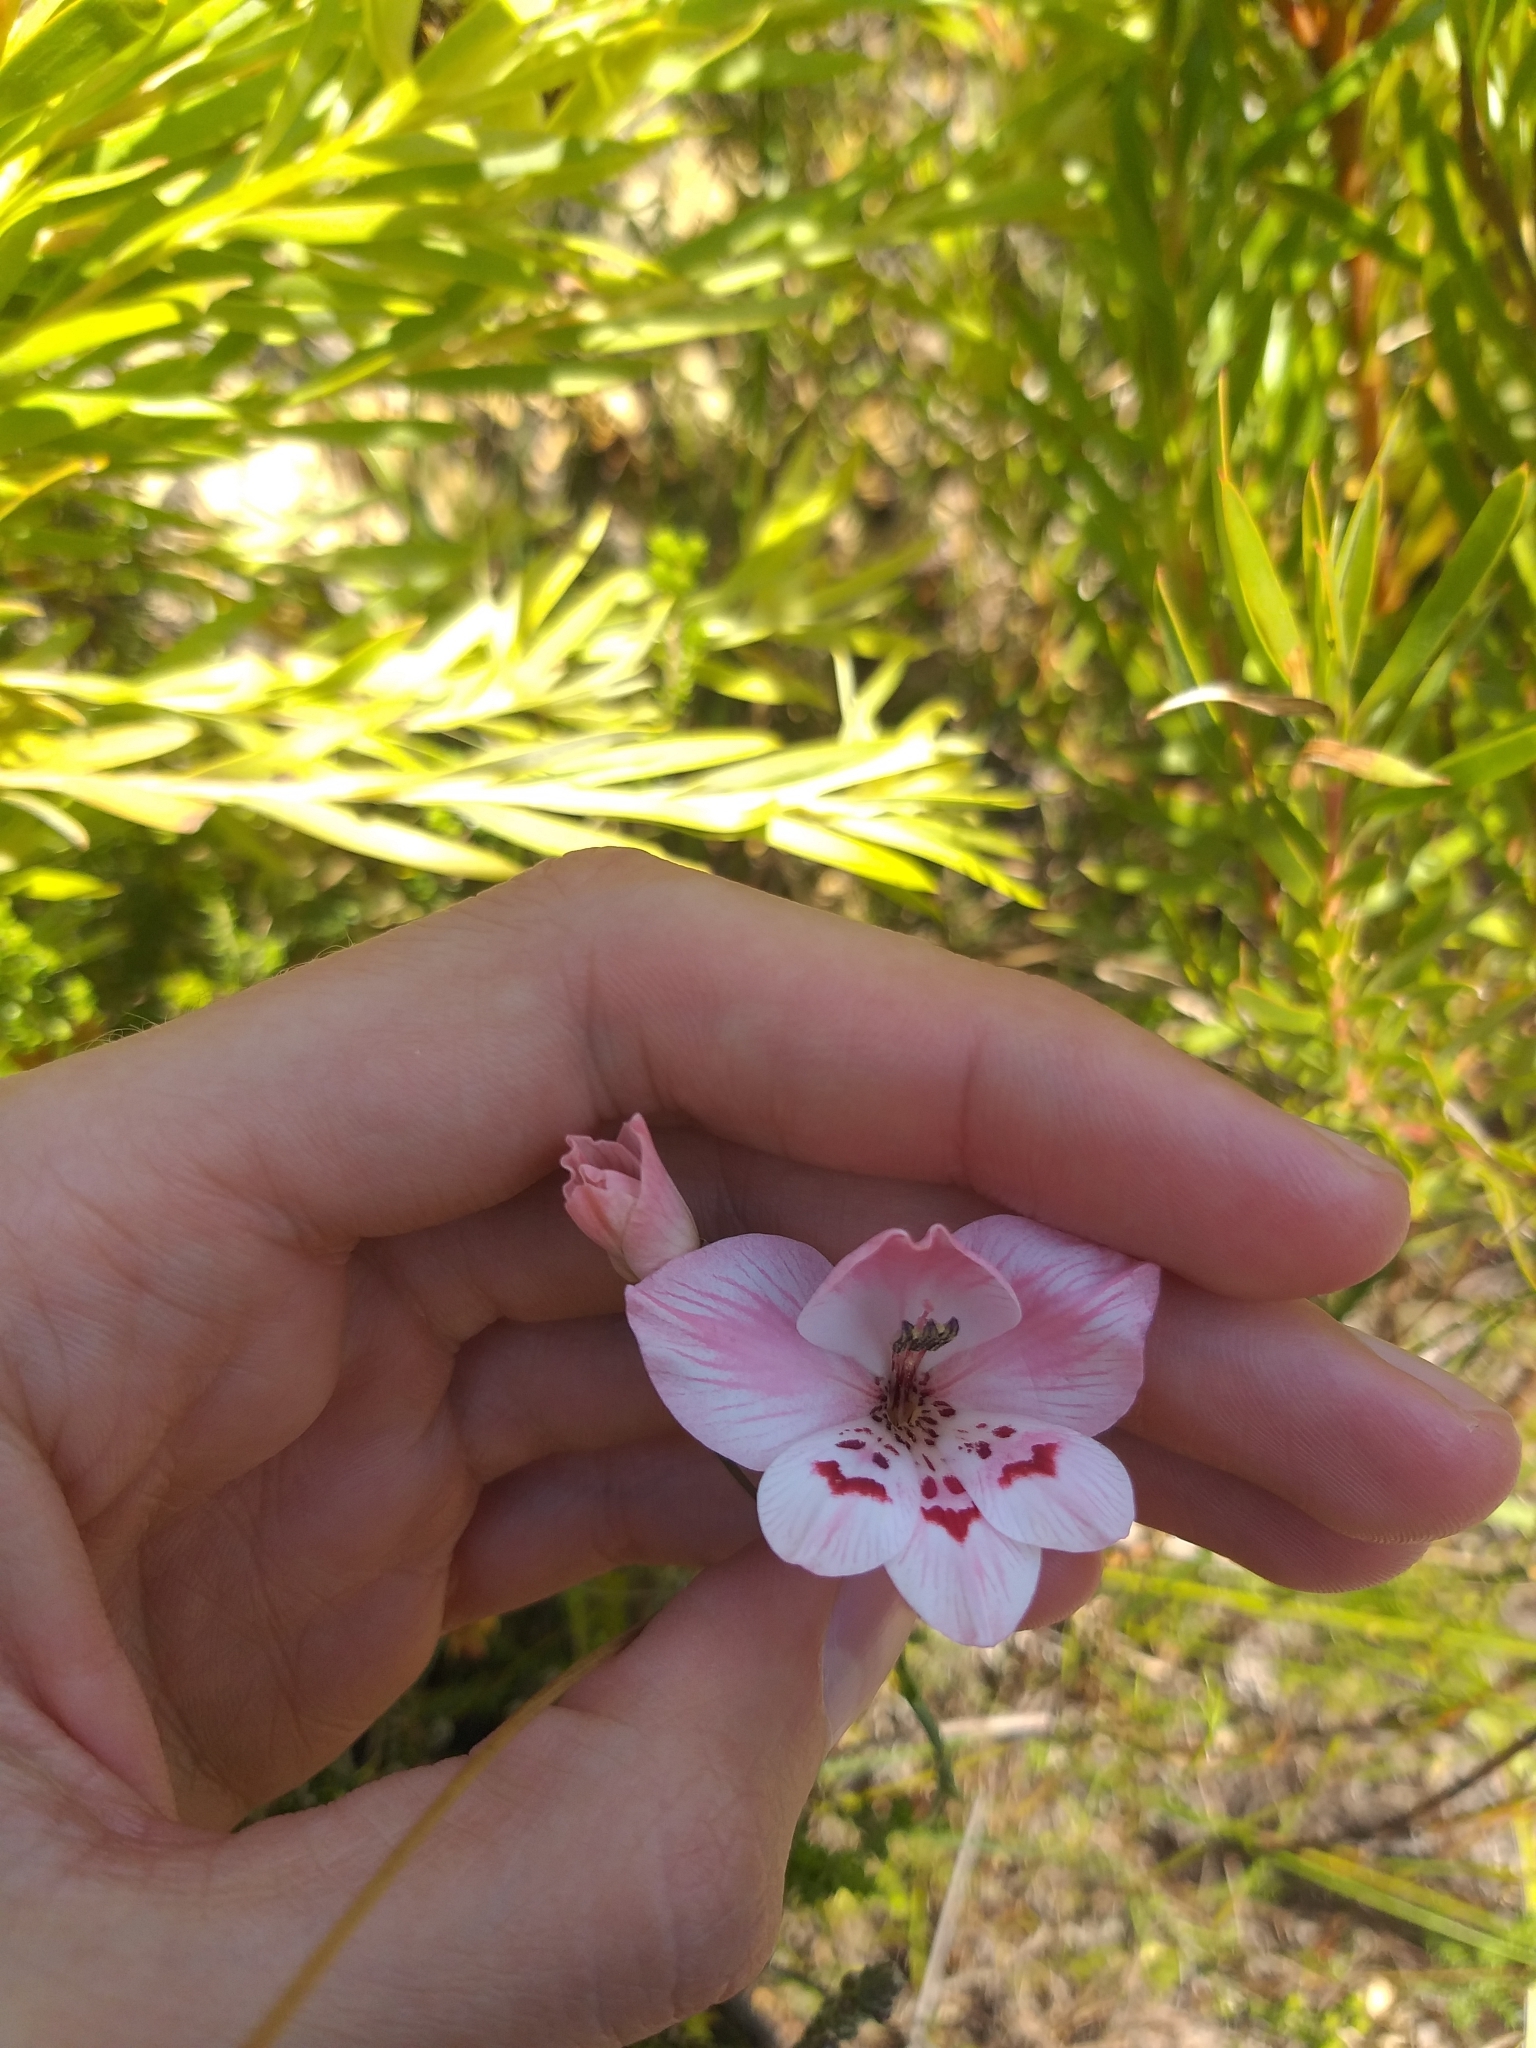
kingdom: Plantae
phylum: Tracheophyta
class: Liliopsida
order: Asparagales
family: Iridaceae
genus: Gladiolus
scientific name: Gladiolus debilis
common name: Painted-lady
